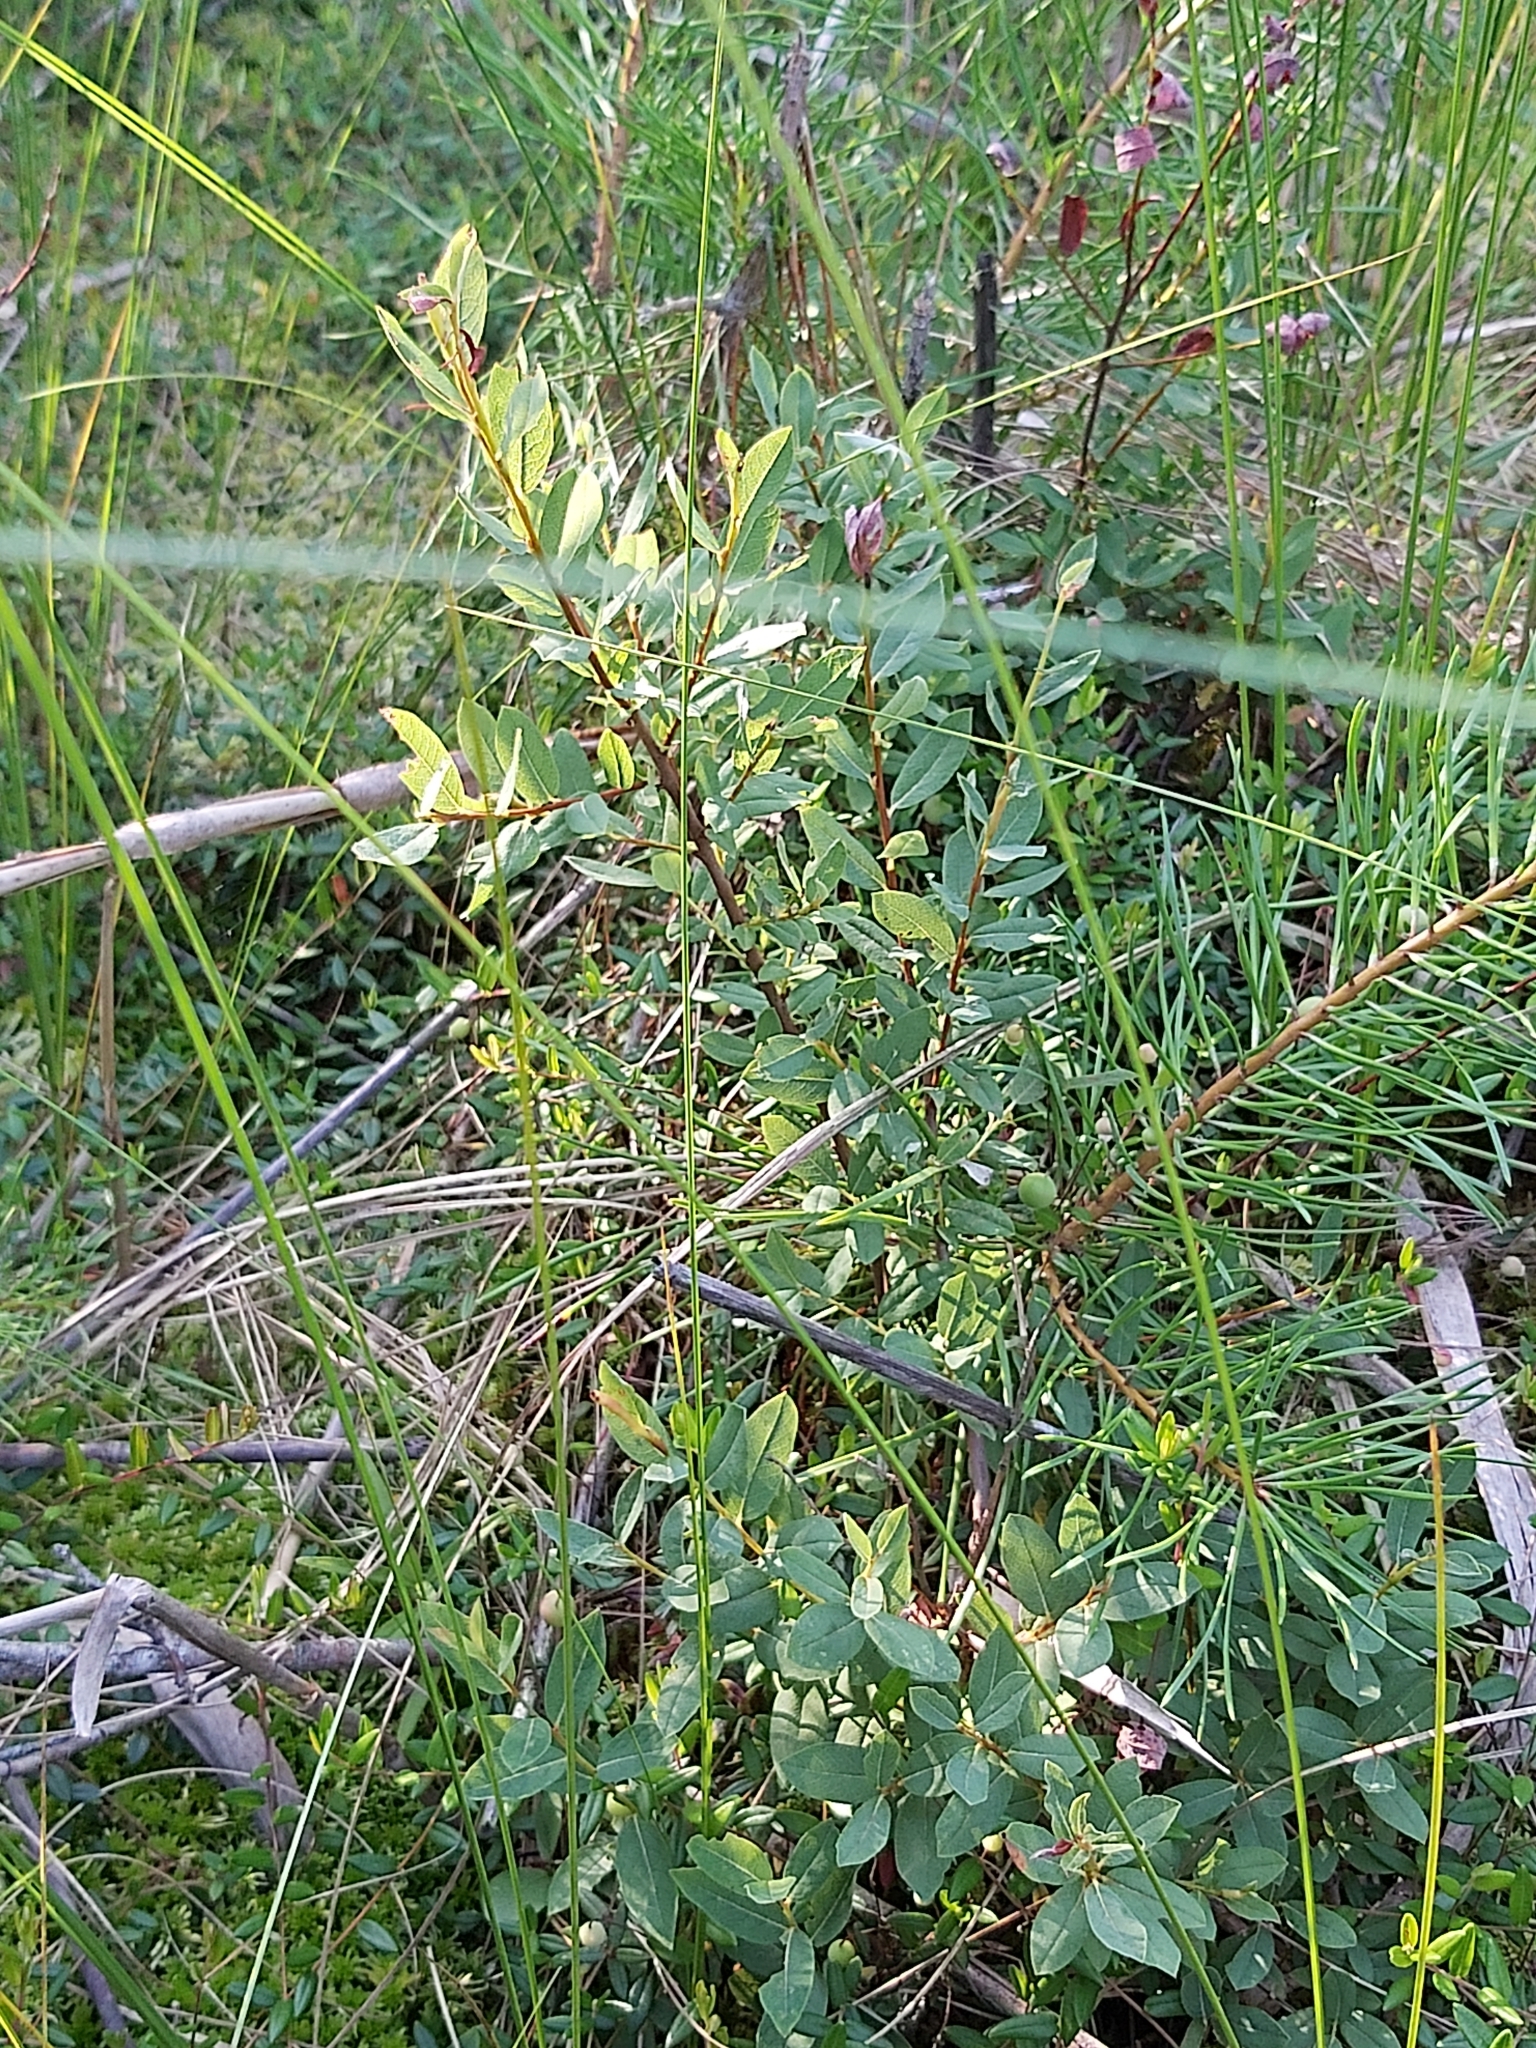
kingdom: Plantae
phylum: Tracheophyta
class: Magnoliopsida
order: Malpighiales
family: Salicaceae
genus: Salix
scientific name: Salix myrtilloides
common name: Myrtle-leaved willow
